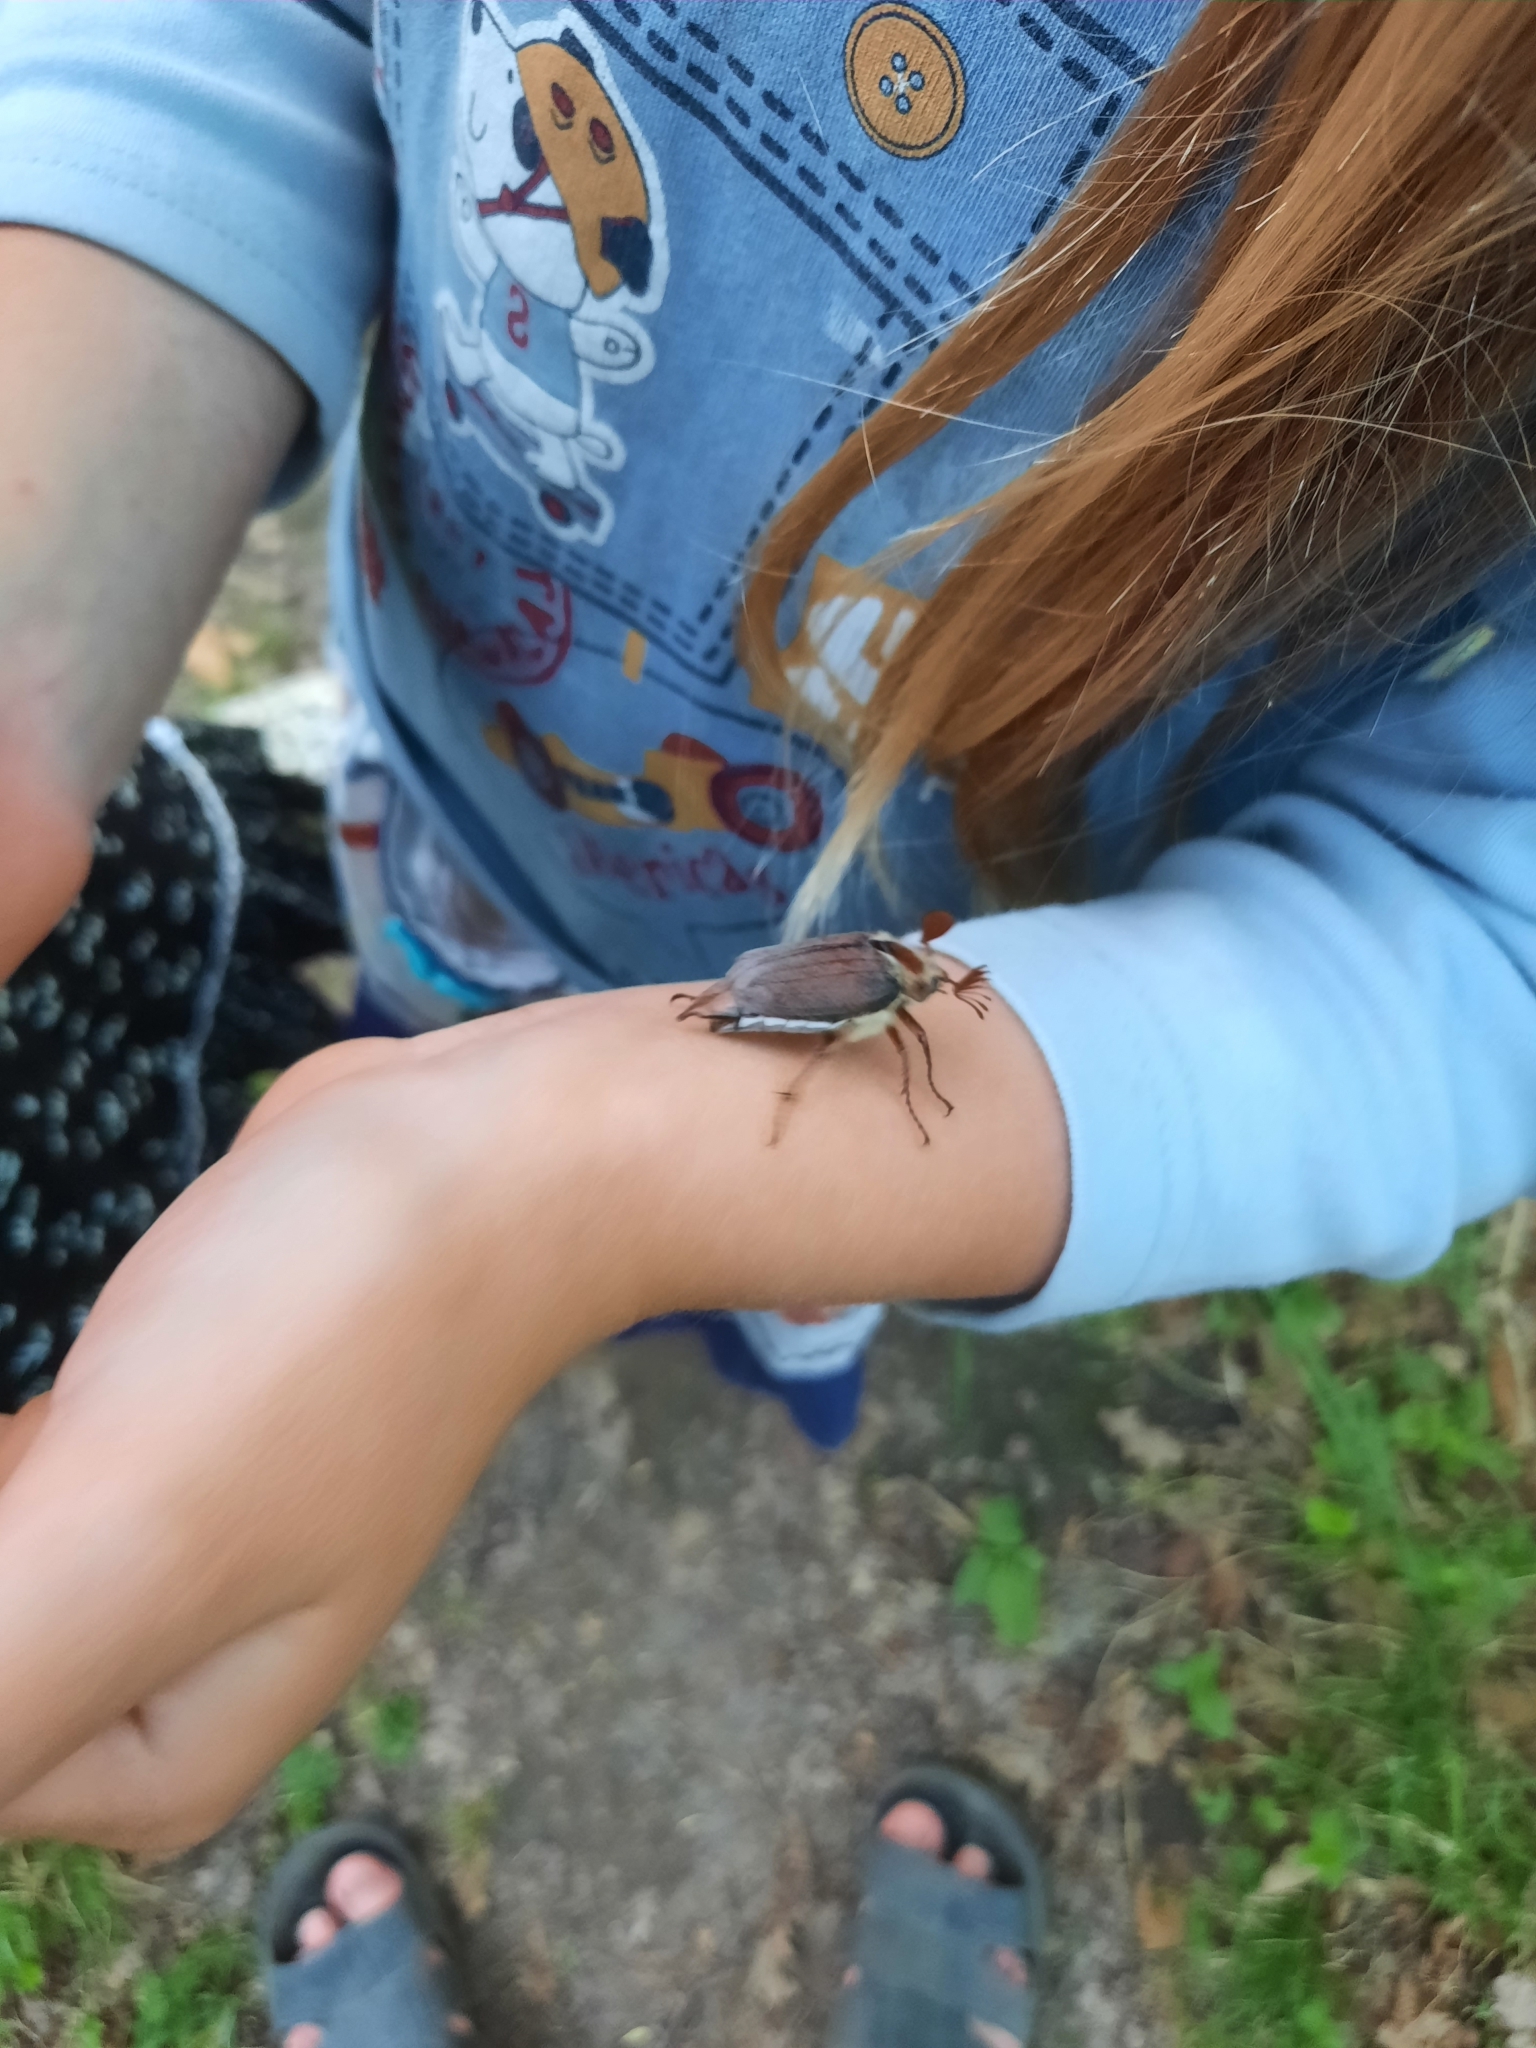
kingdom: Animalia
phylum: Arthropoda
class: Insecta
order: Coleoptera
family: Scarabaeidae
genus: Melolontha
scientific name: Melolontha hippocastani
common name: Chestnut cockchafer
